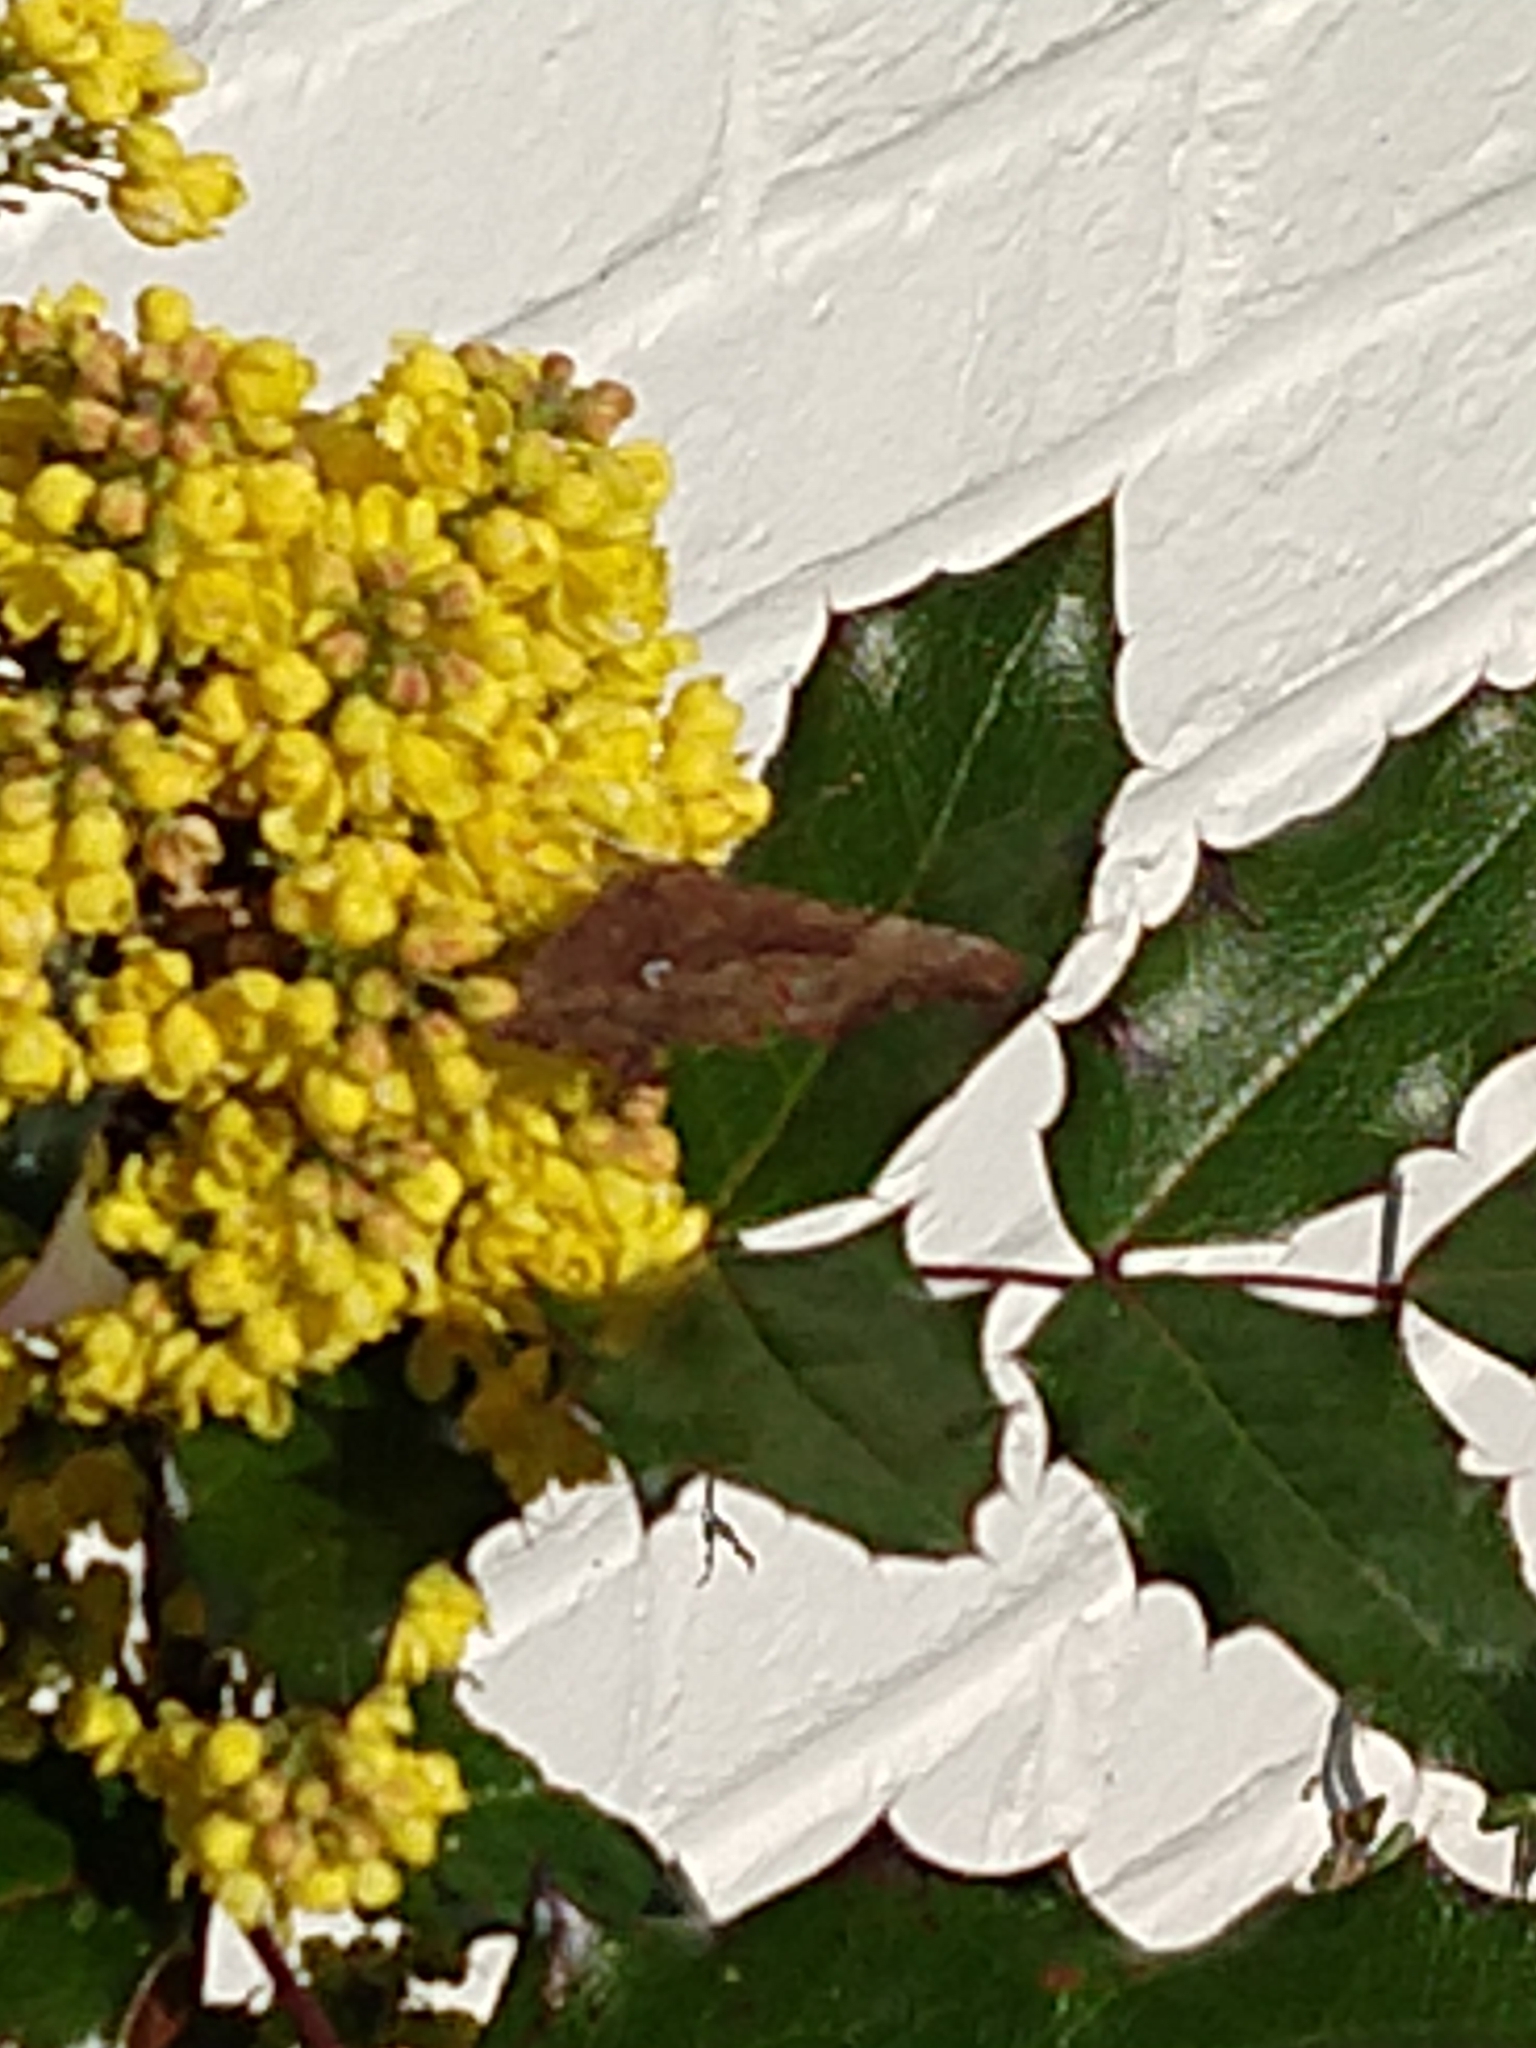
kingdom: Animalia
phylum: Arthropoda
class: Insecta
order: Lepidoptera
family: Nymphalidae
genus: Polygonia
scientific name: Polygonia c-album
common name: Comma
